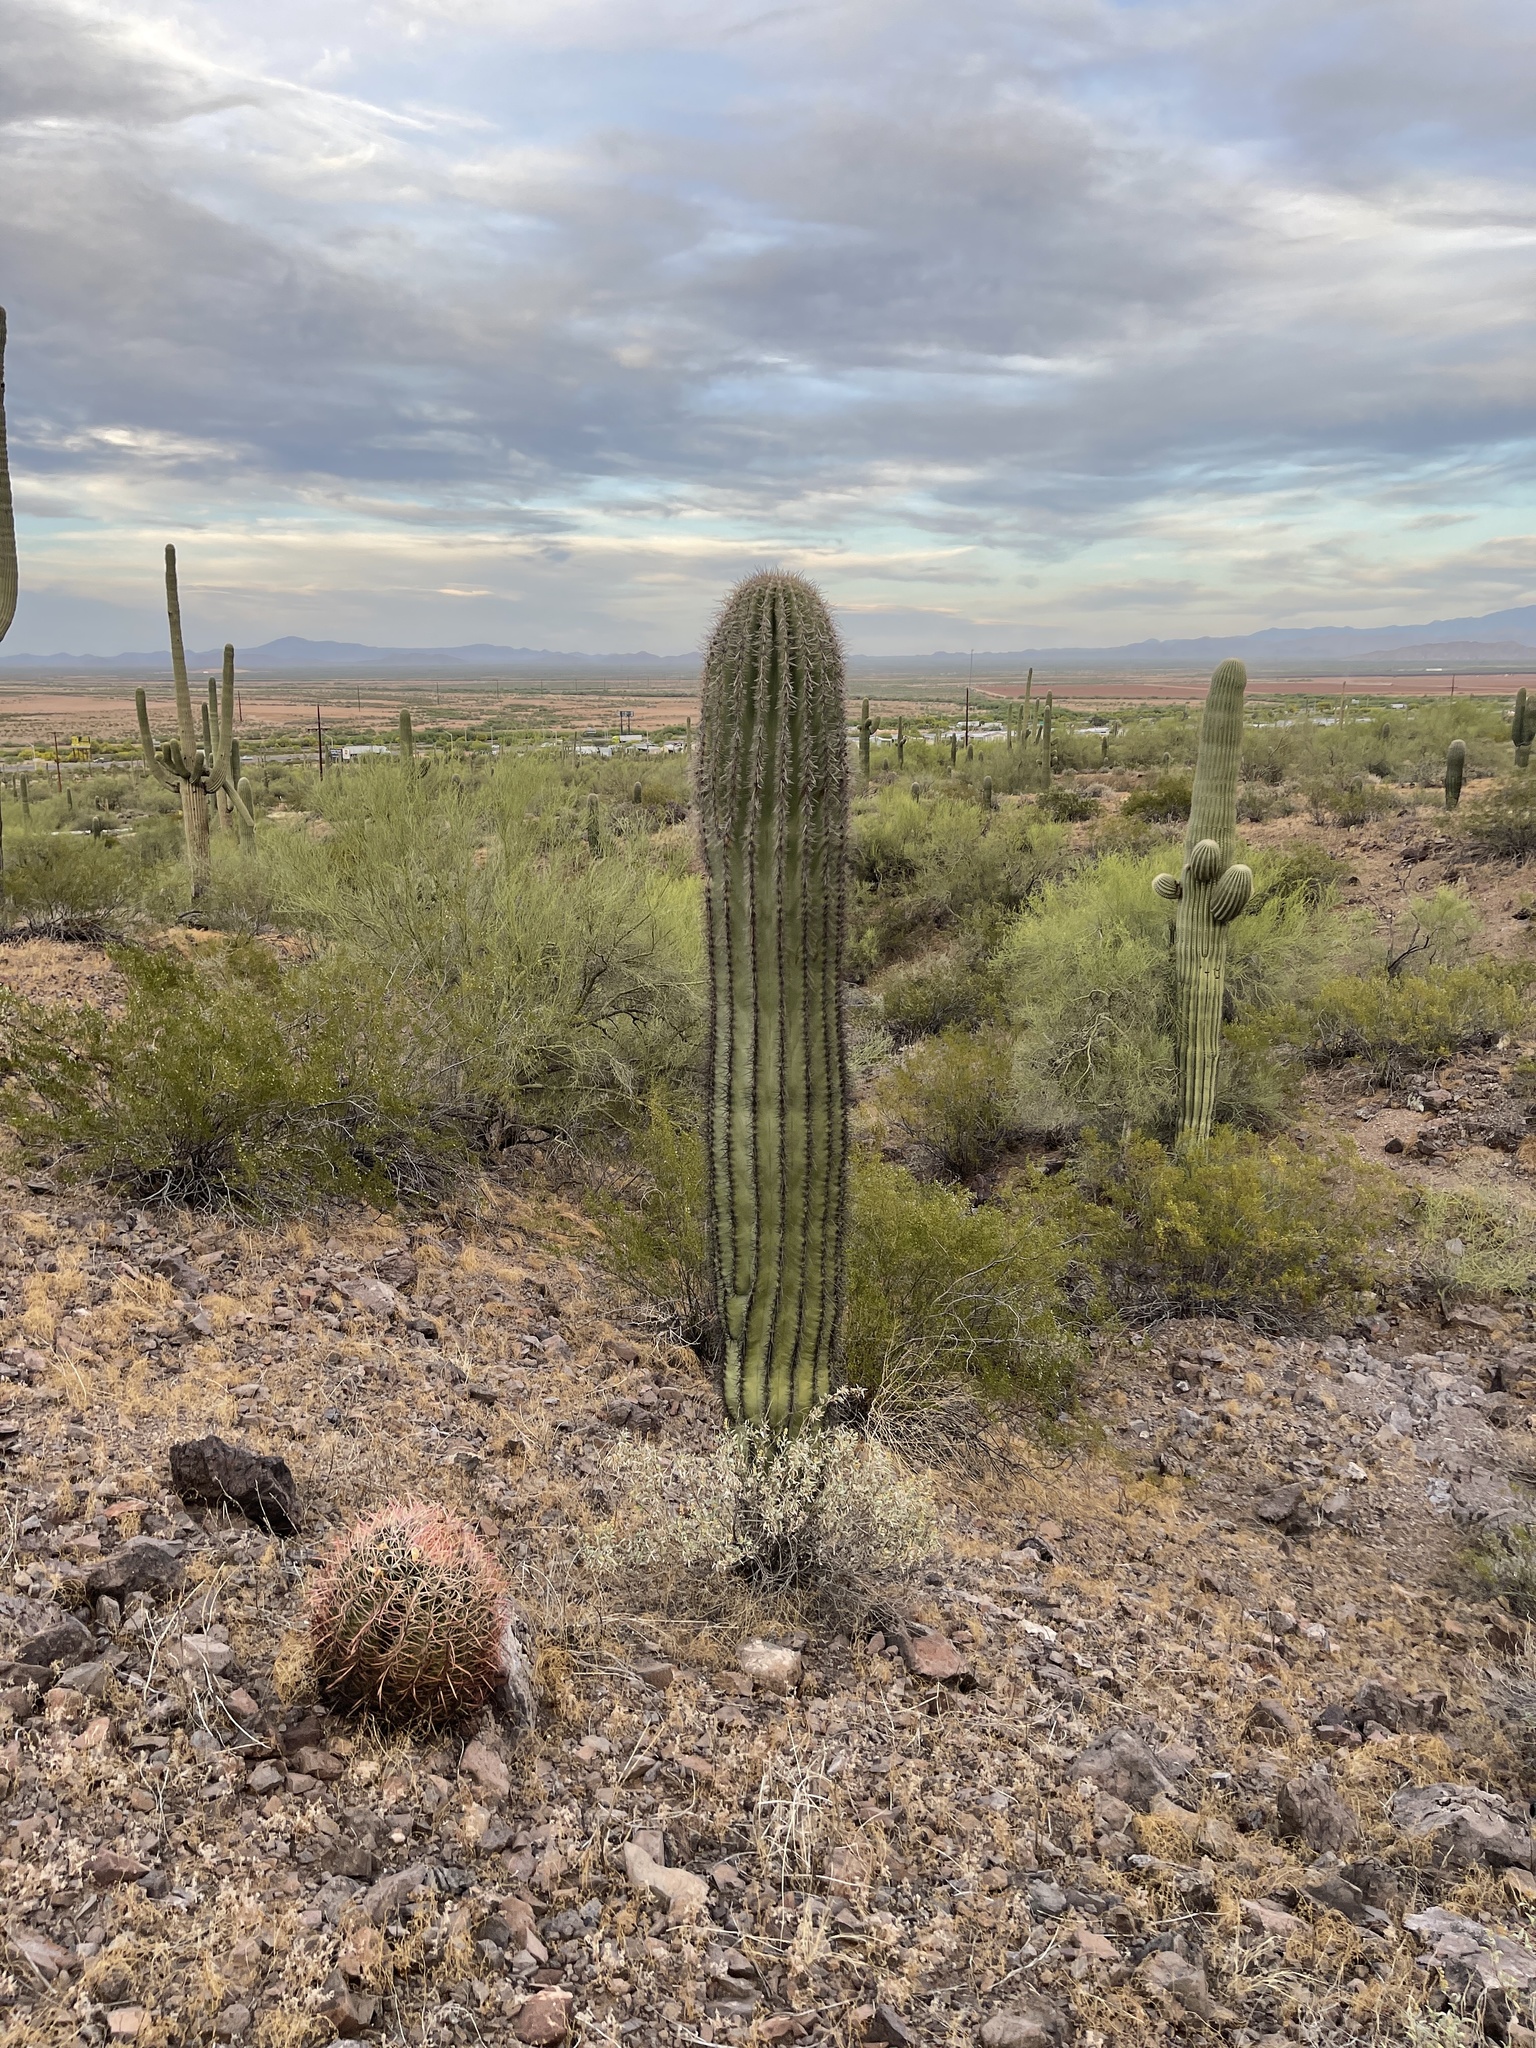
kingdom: Plantae
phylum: Tracheophyta
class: Magnoliopsida
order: Caryophyllales
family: Cactaceae
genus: Carnegiea
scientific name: Carnegiea gigantea
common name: Saguaro
